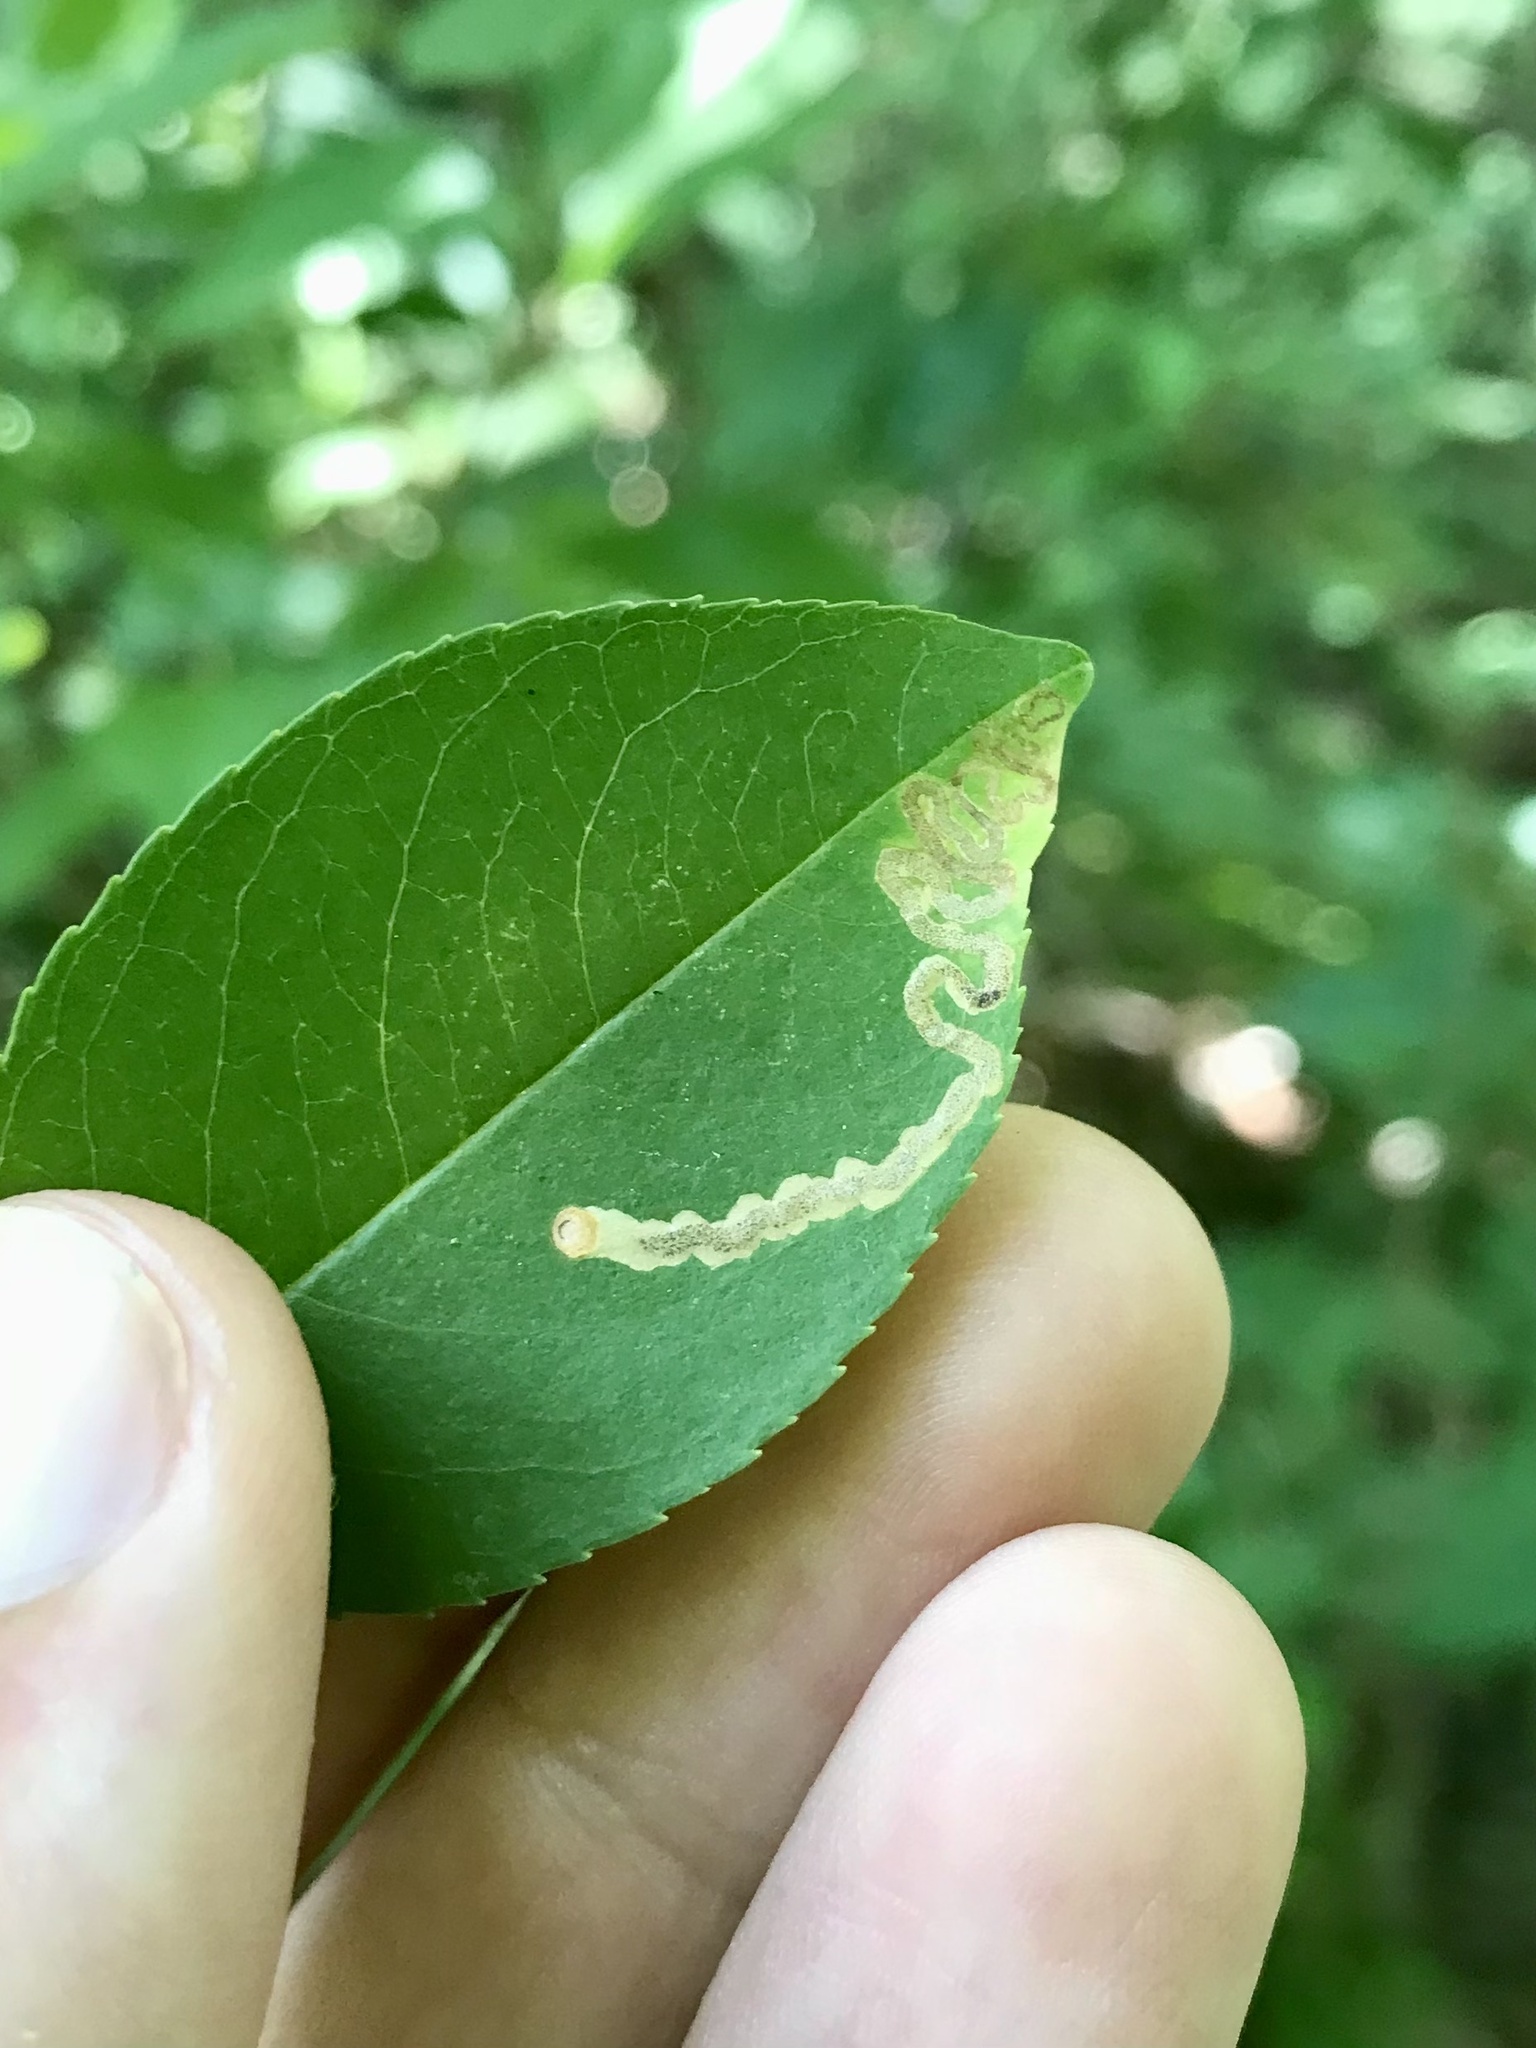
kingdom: Animalia
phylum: Arthropoda
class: Insecta
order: Lepidoptera
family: Nepticulidae
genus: Stigmella
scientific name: Stigmella prunifoliella
